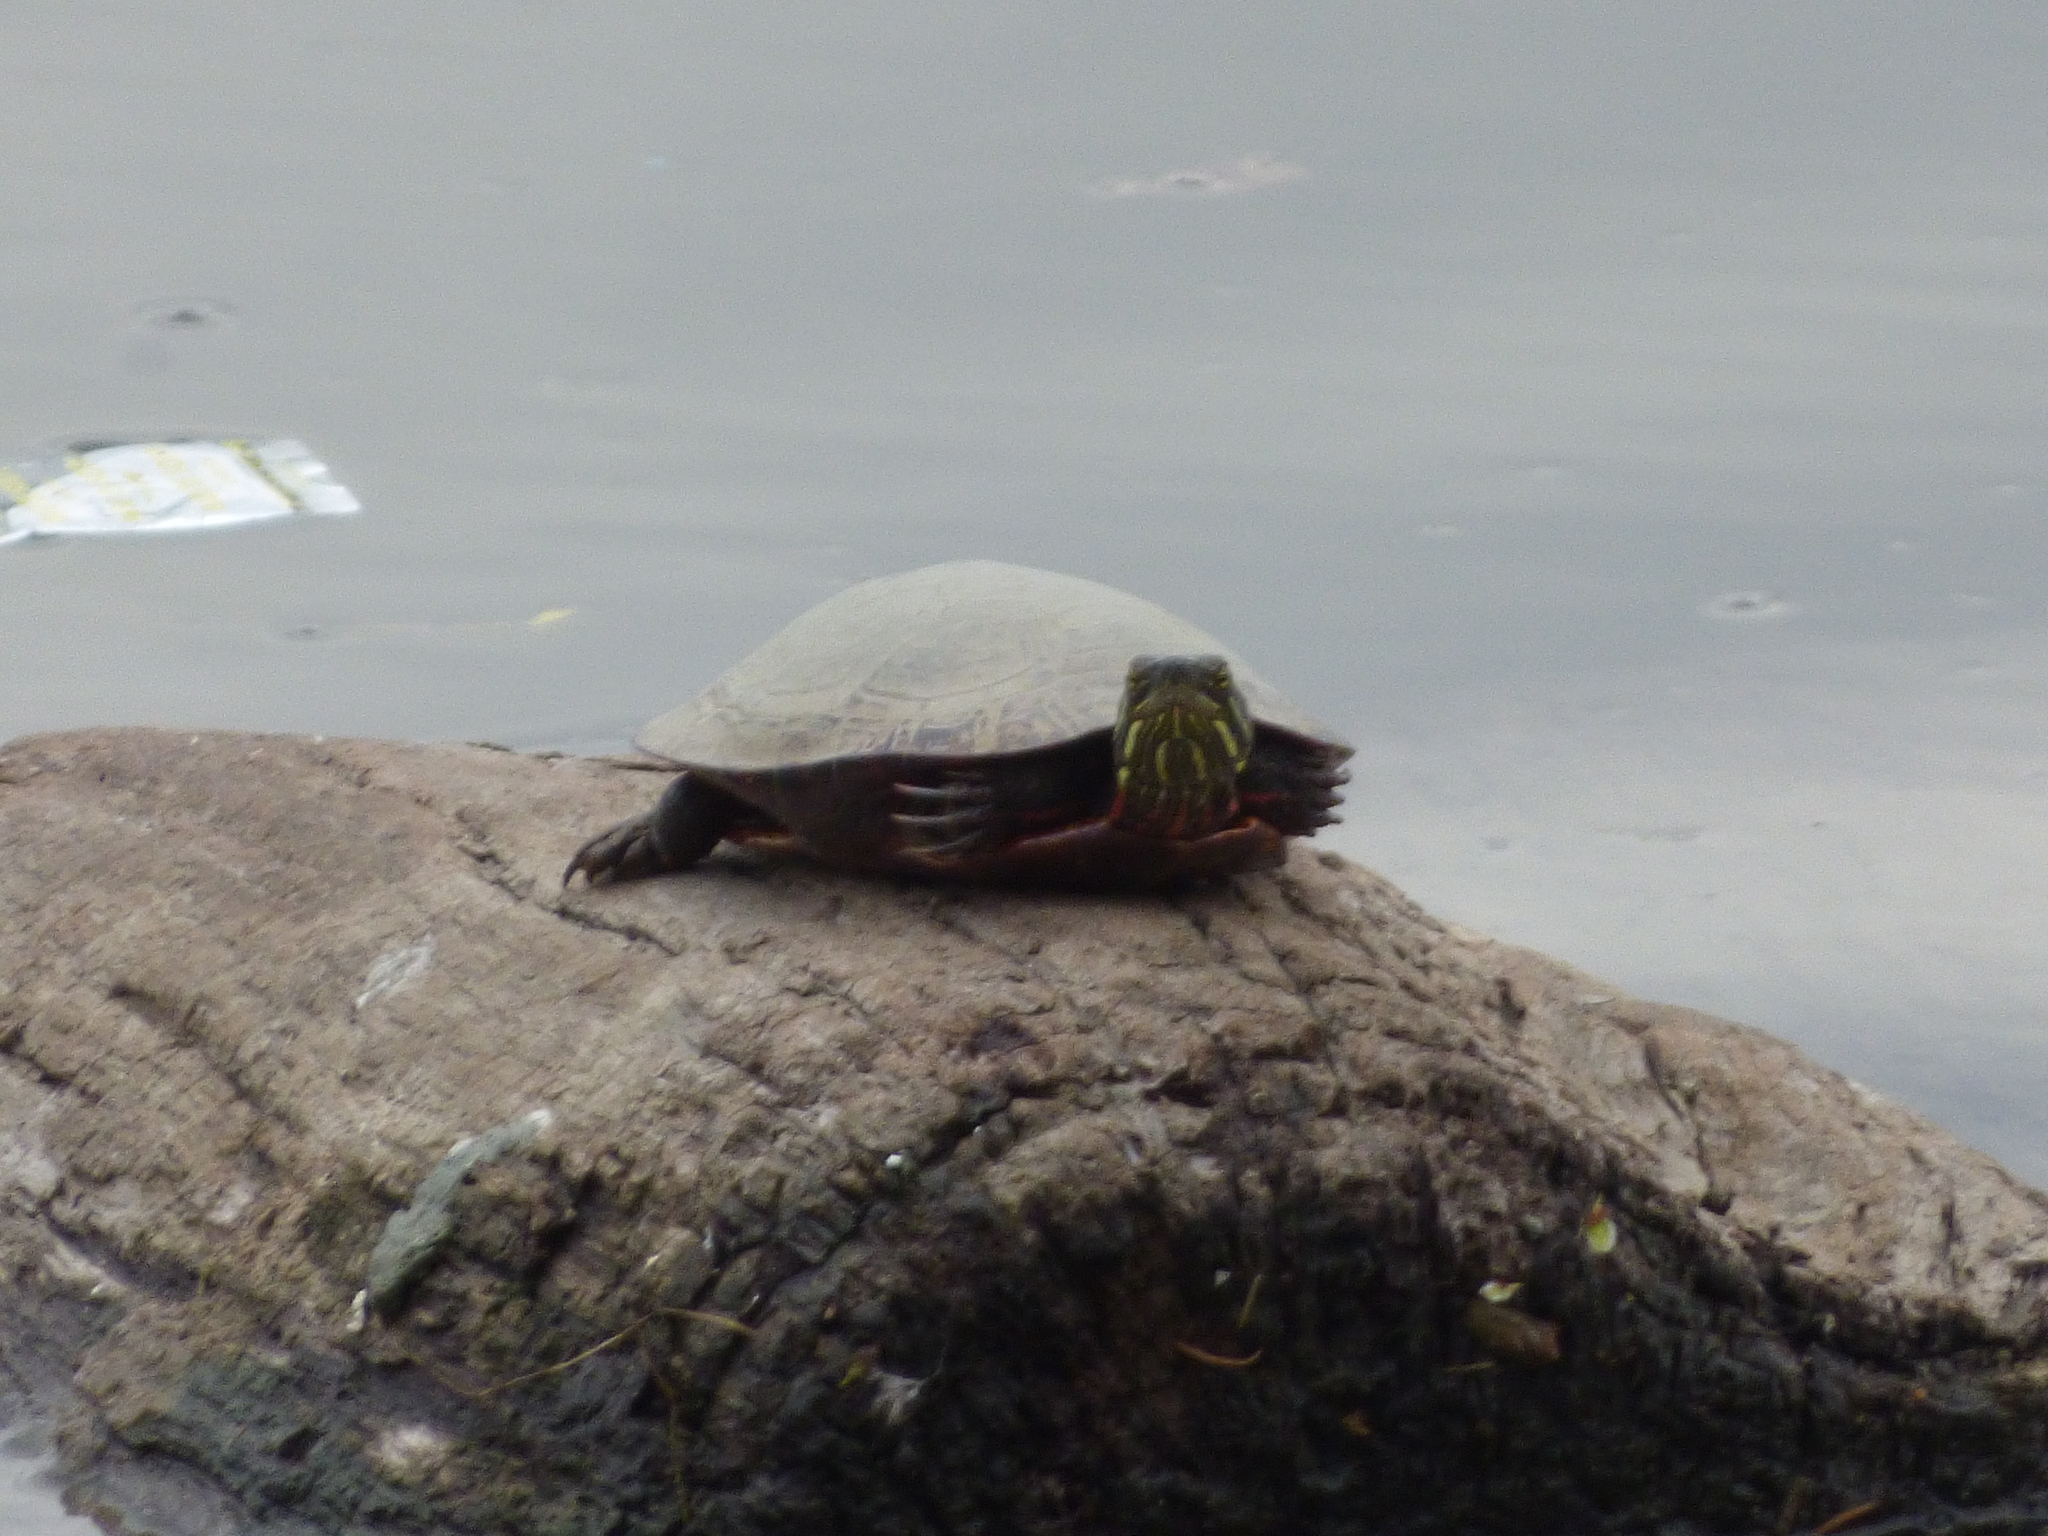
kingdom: Animalia
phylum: Chordata
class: Testudines
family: Emydidae
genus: Chrysemys
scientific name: Chrysemys picta
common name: Painted turtle
